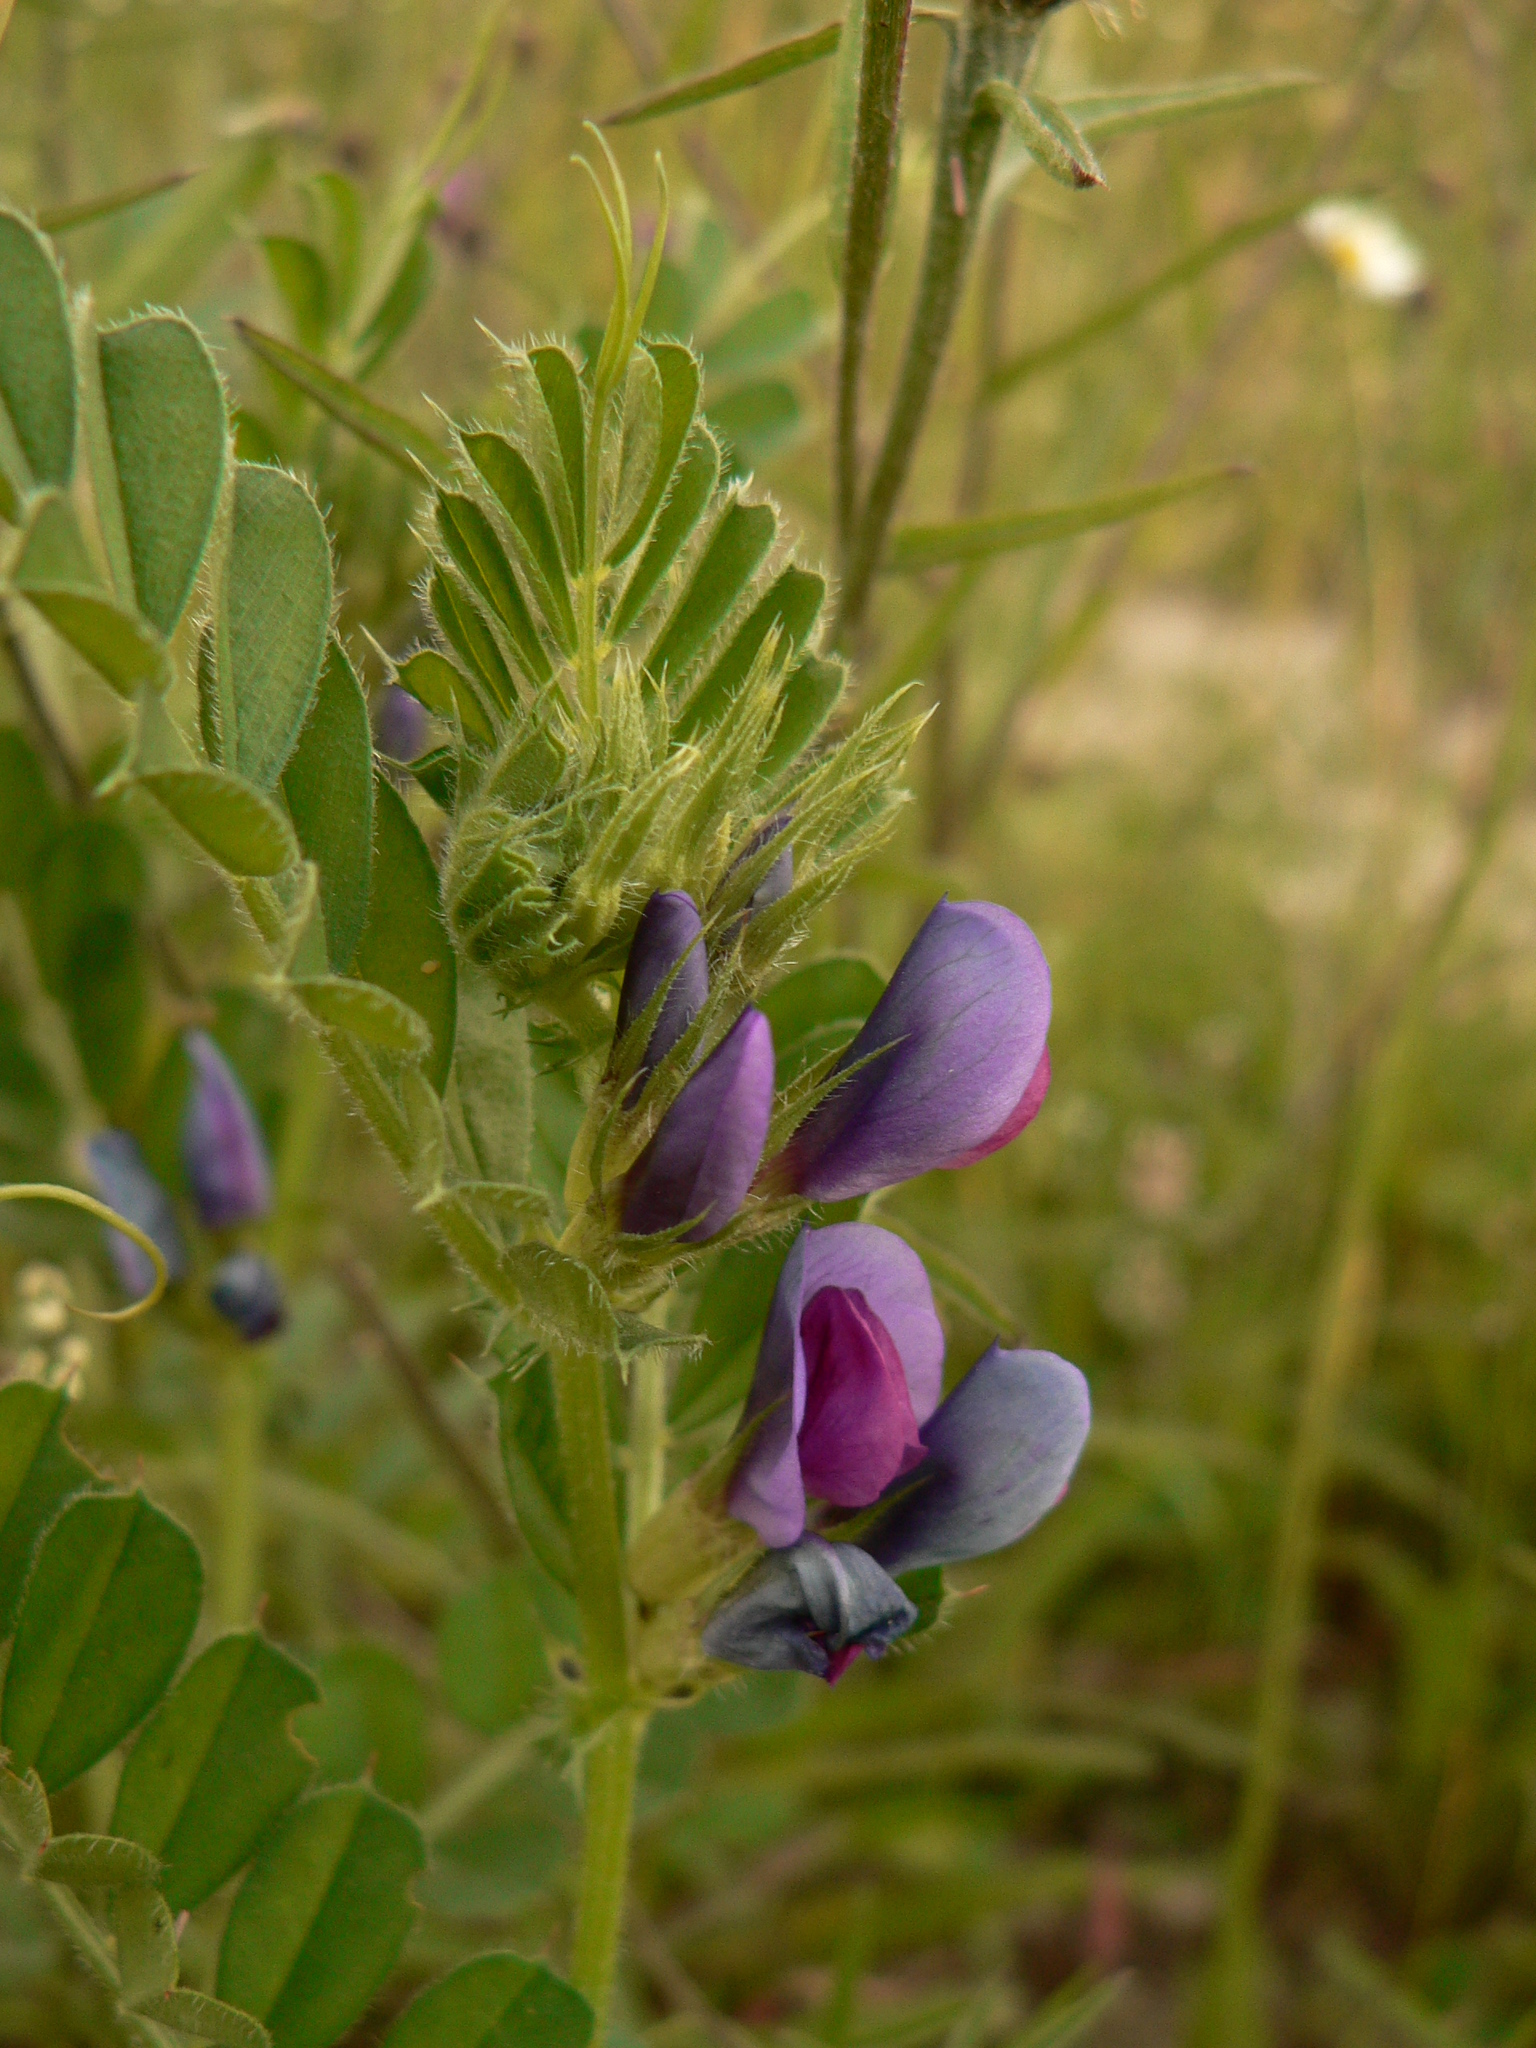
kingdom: Plantae
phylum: Tracheophyta
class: Magnoliopsida
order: Fabales
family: Fabaceae
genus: Vicia
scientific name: Vicia sepium
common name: Bush vetch
